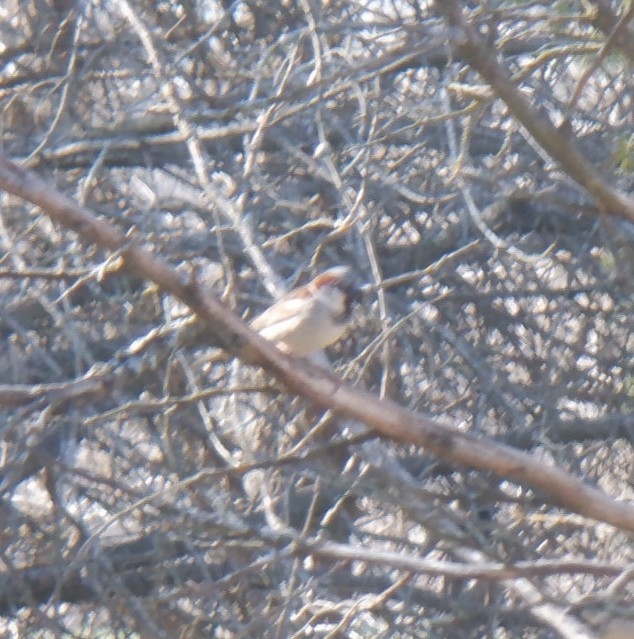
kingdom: Animalia
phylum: Chordata
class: Aves
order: Passeriformes
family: Passeridae
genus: Passer
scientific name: Passer domesticus
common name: House sparrow
